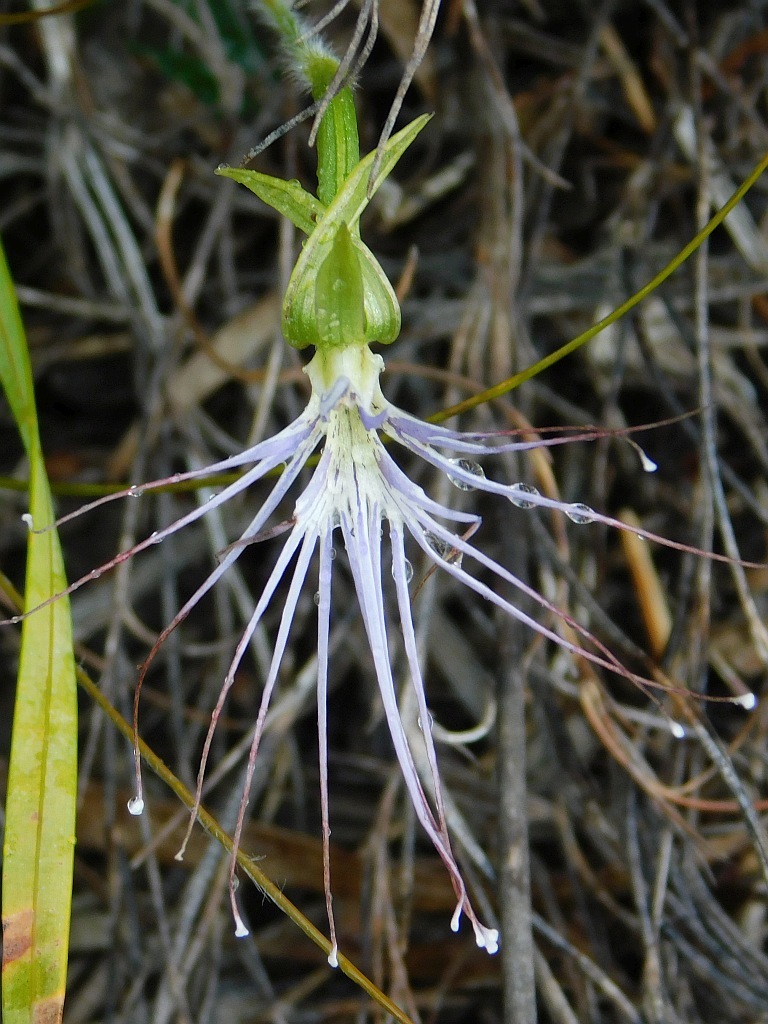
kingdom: Plantae
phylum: Tracheophyta
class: Liliopsida
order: Asparagales
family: Orchidaceae
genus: Holothrix
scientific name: Holothrix etheliae
